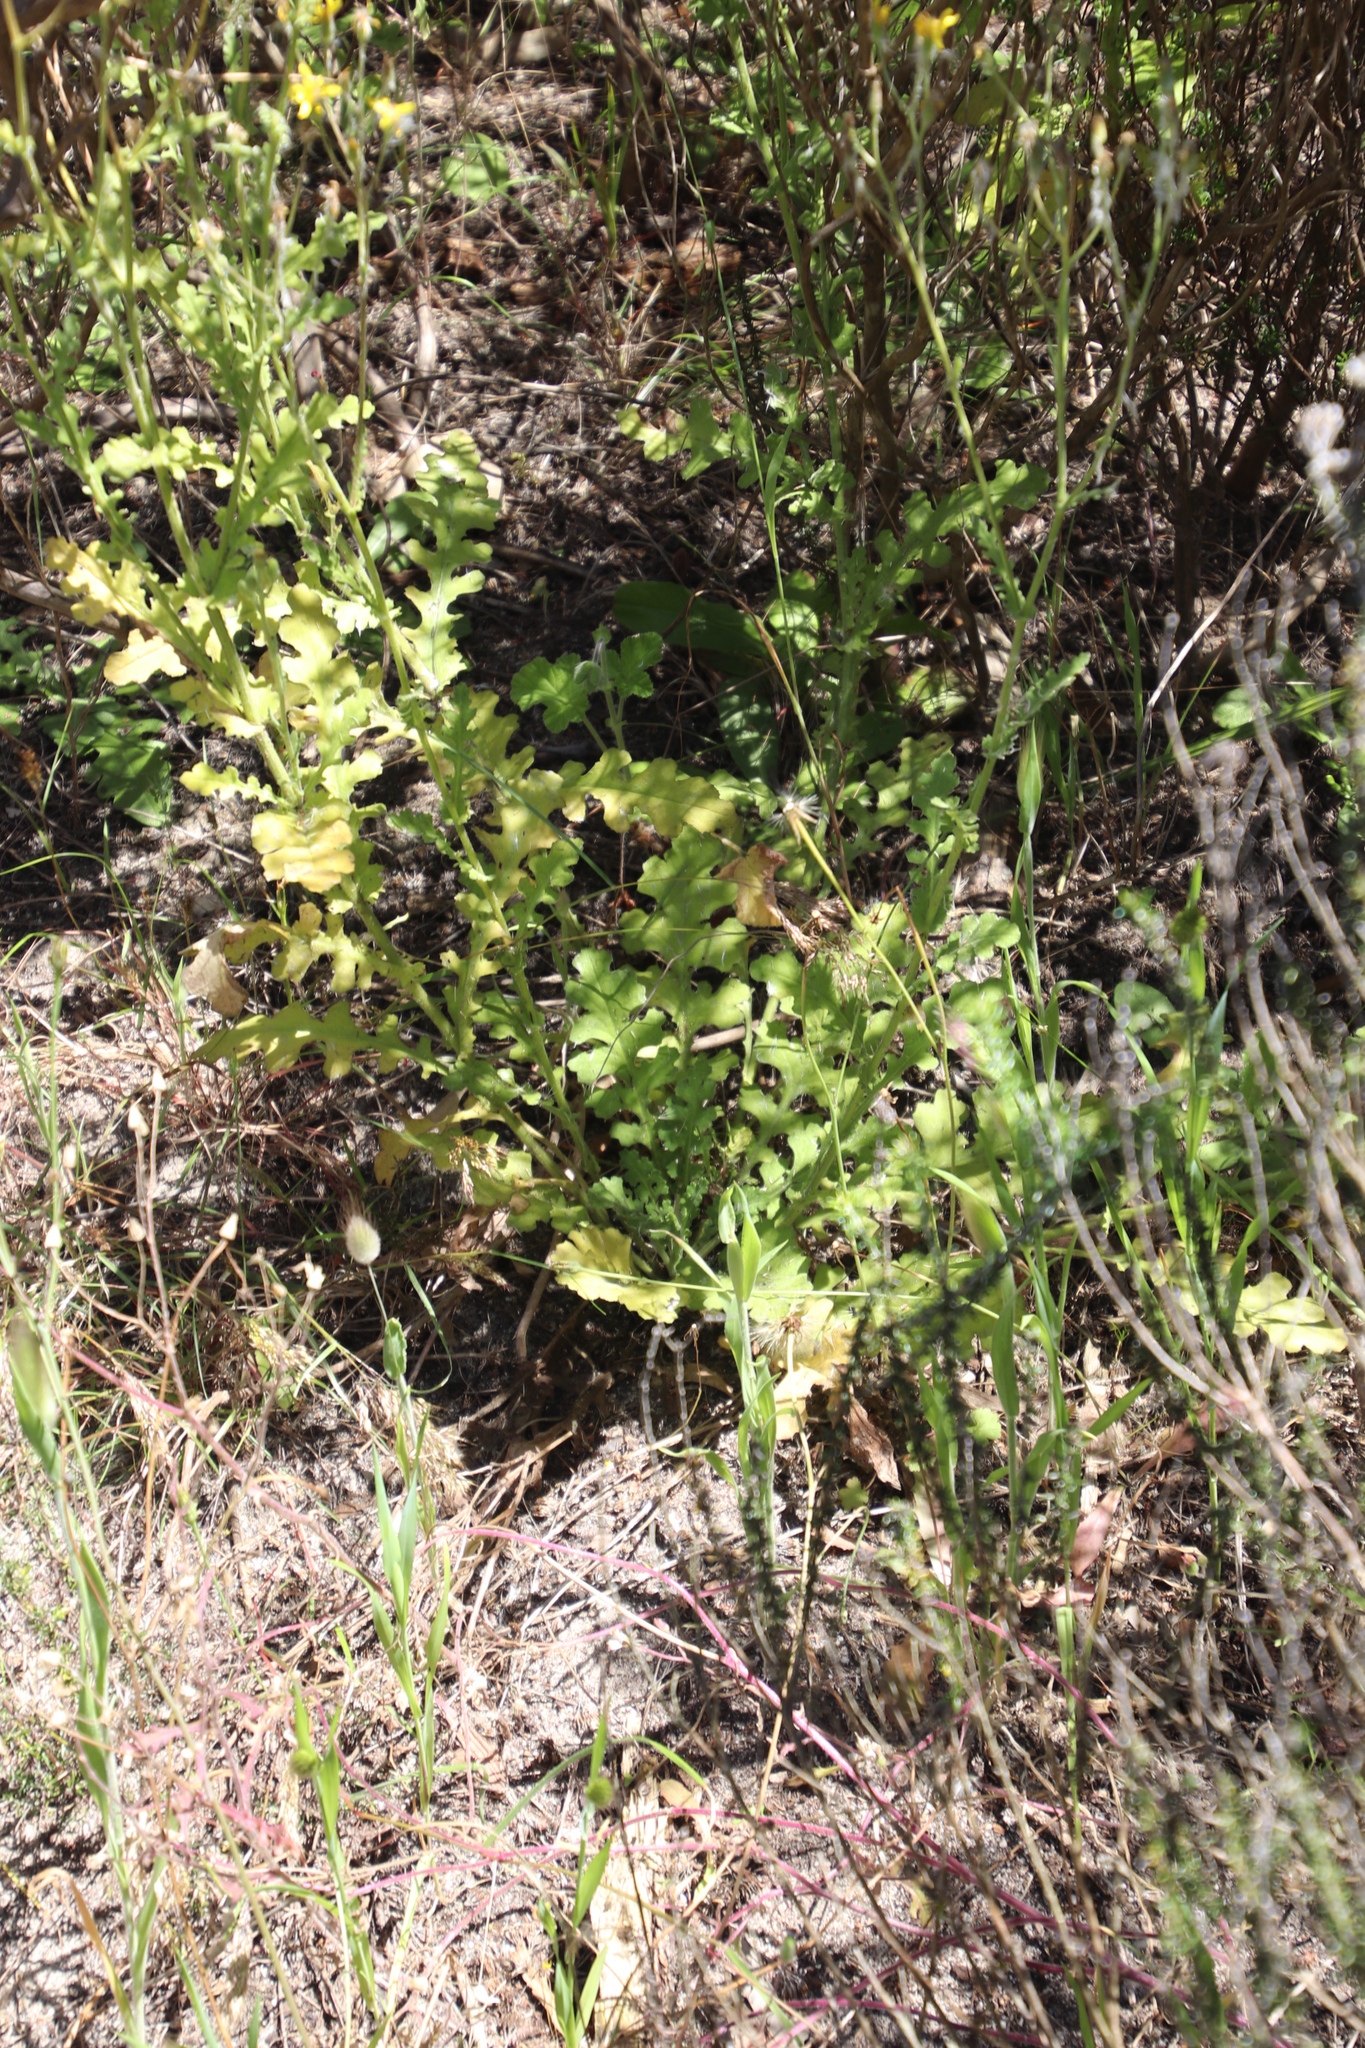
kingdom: Plantae
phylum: Tracheophyta
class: Magnoliopsida
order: Asterales
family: Asteraceae
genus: Senecio
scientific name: Senecio hastatus
